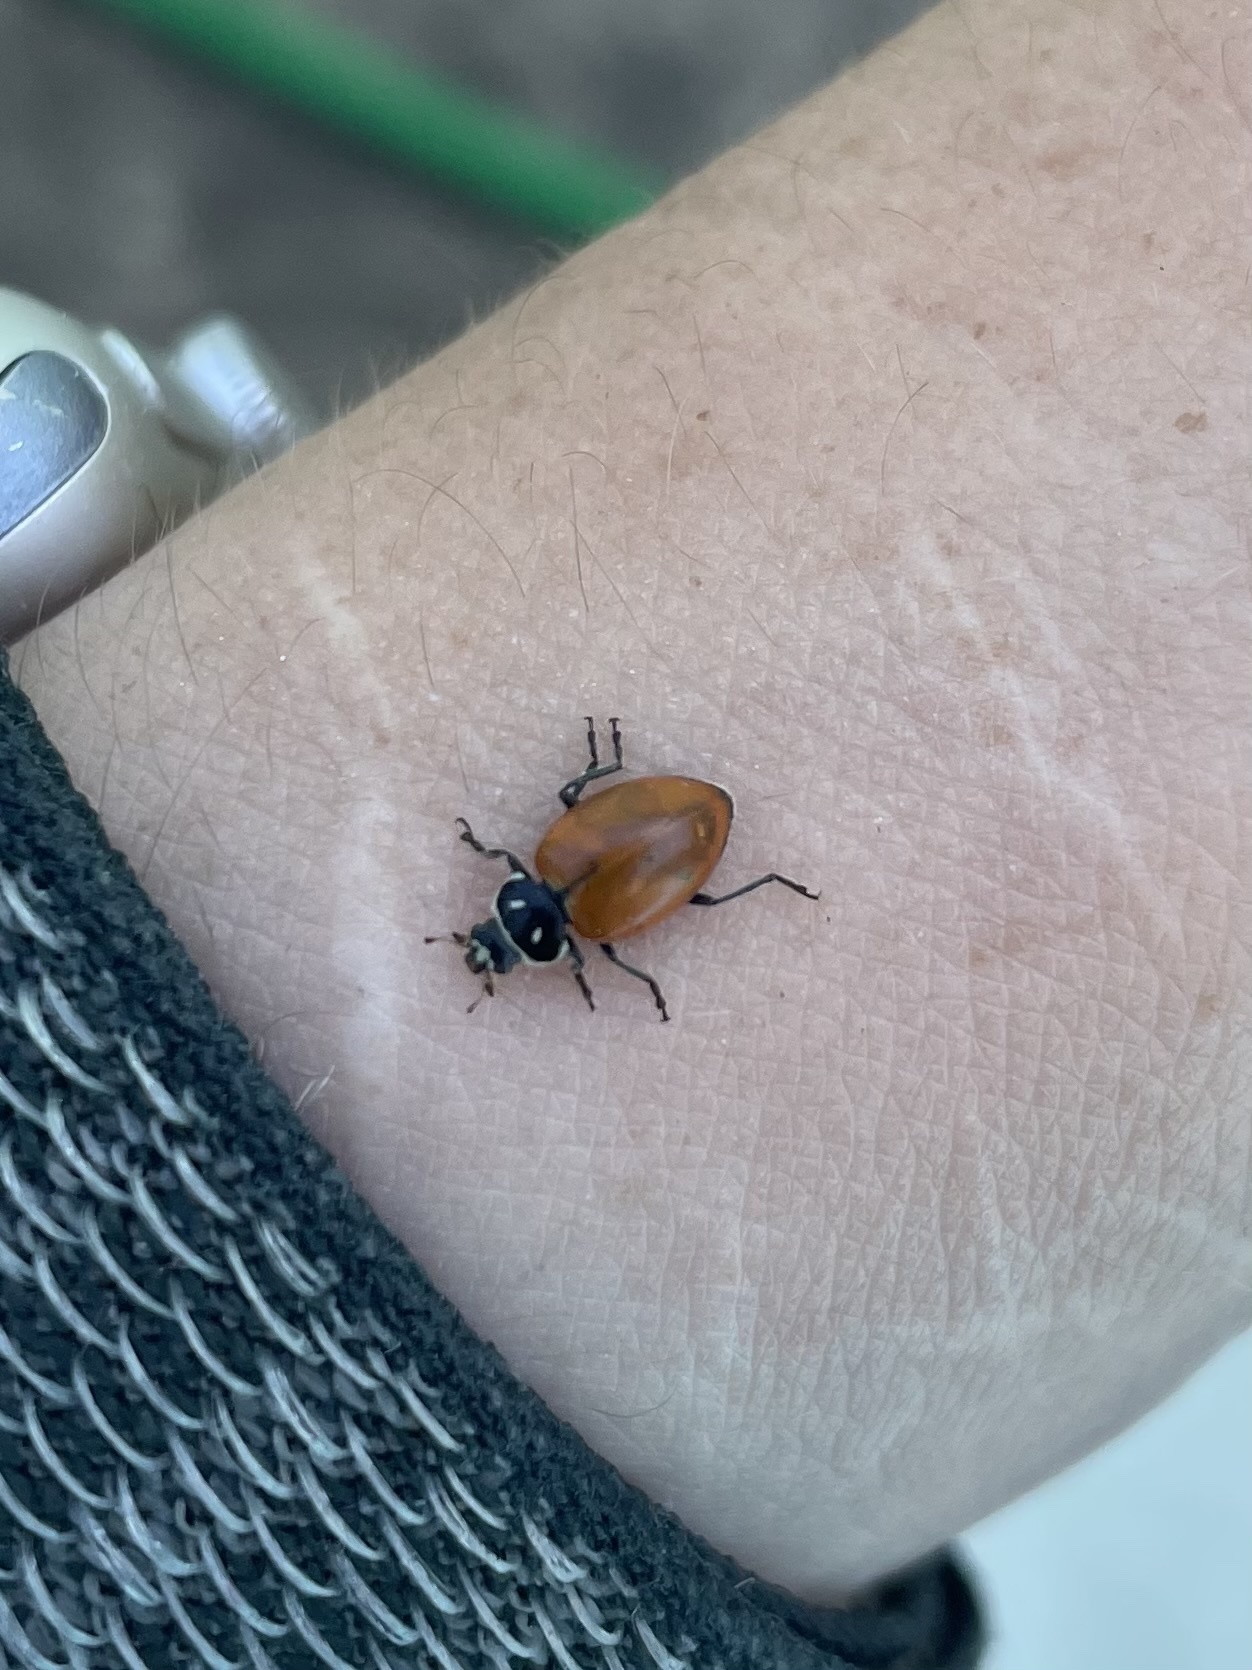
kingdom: Animalia
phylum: Arthropoda
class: Insecta
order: Coleoptera
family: Coccinellidae
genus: Hippodamia
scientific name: Hippodamia convergens
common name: Convergent lady beetle
